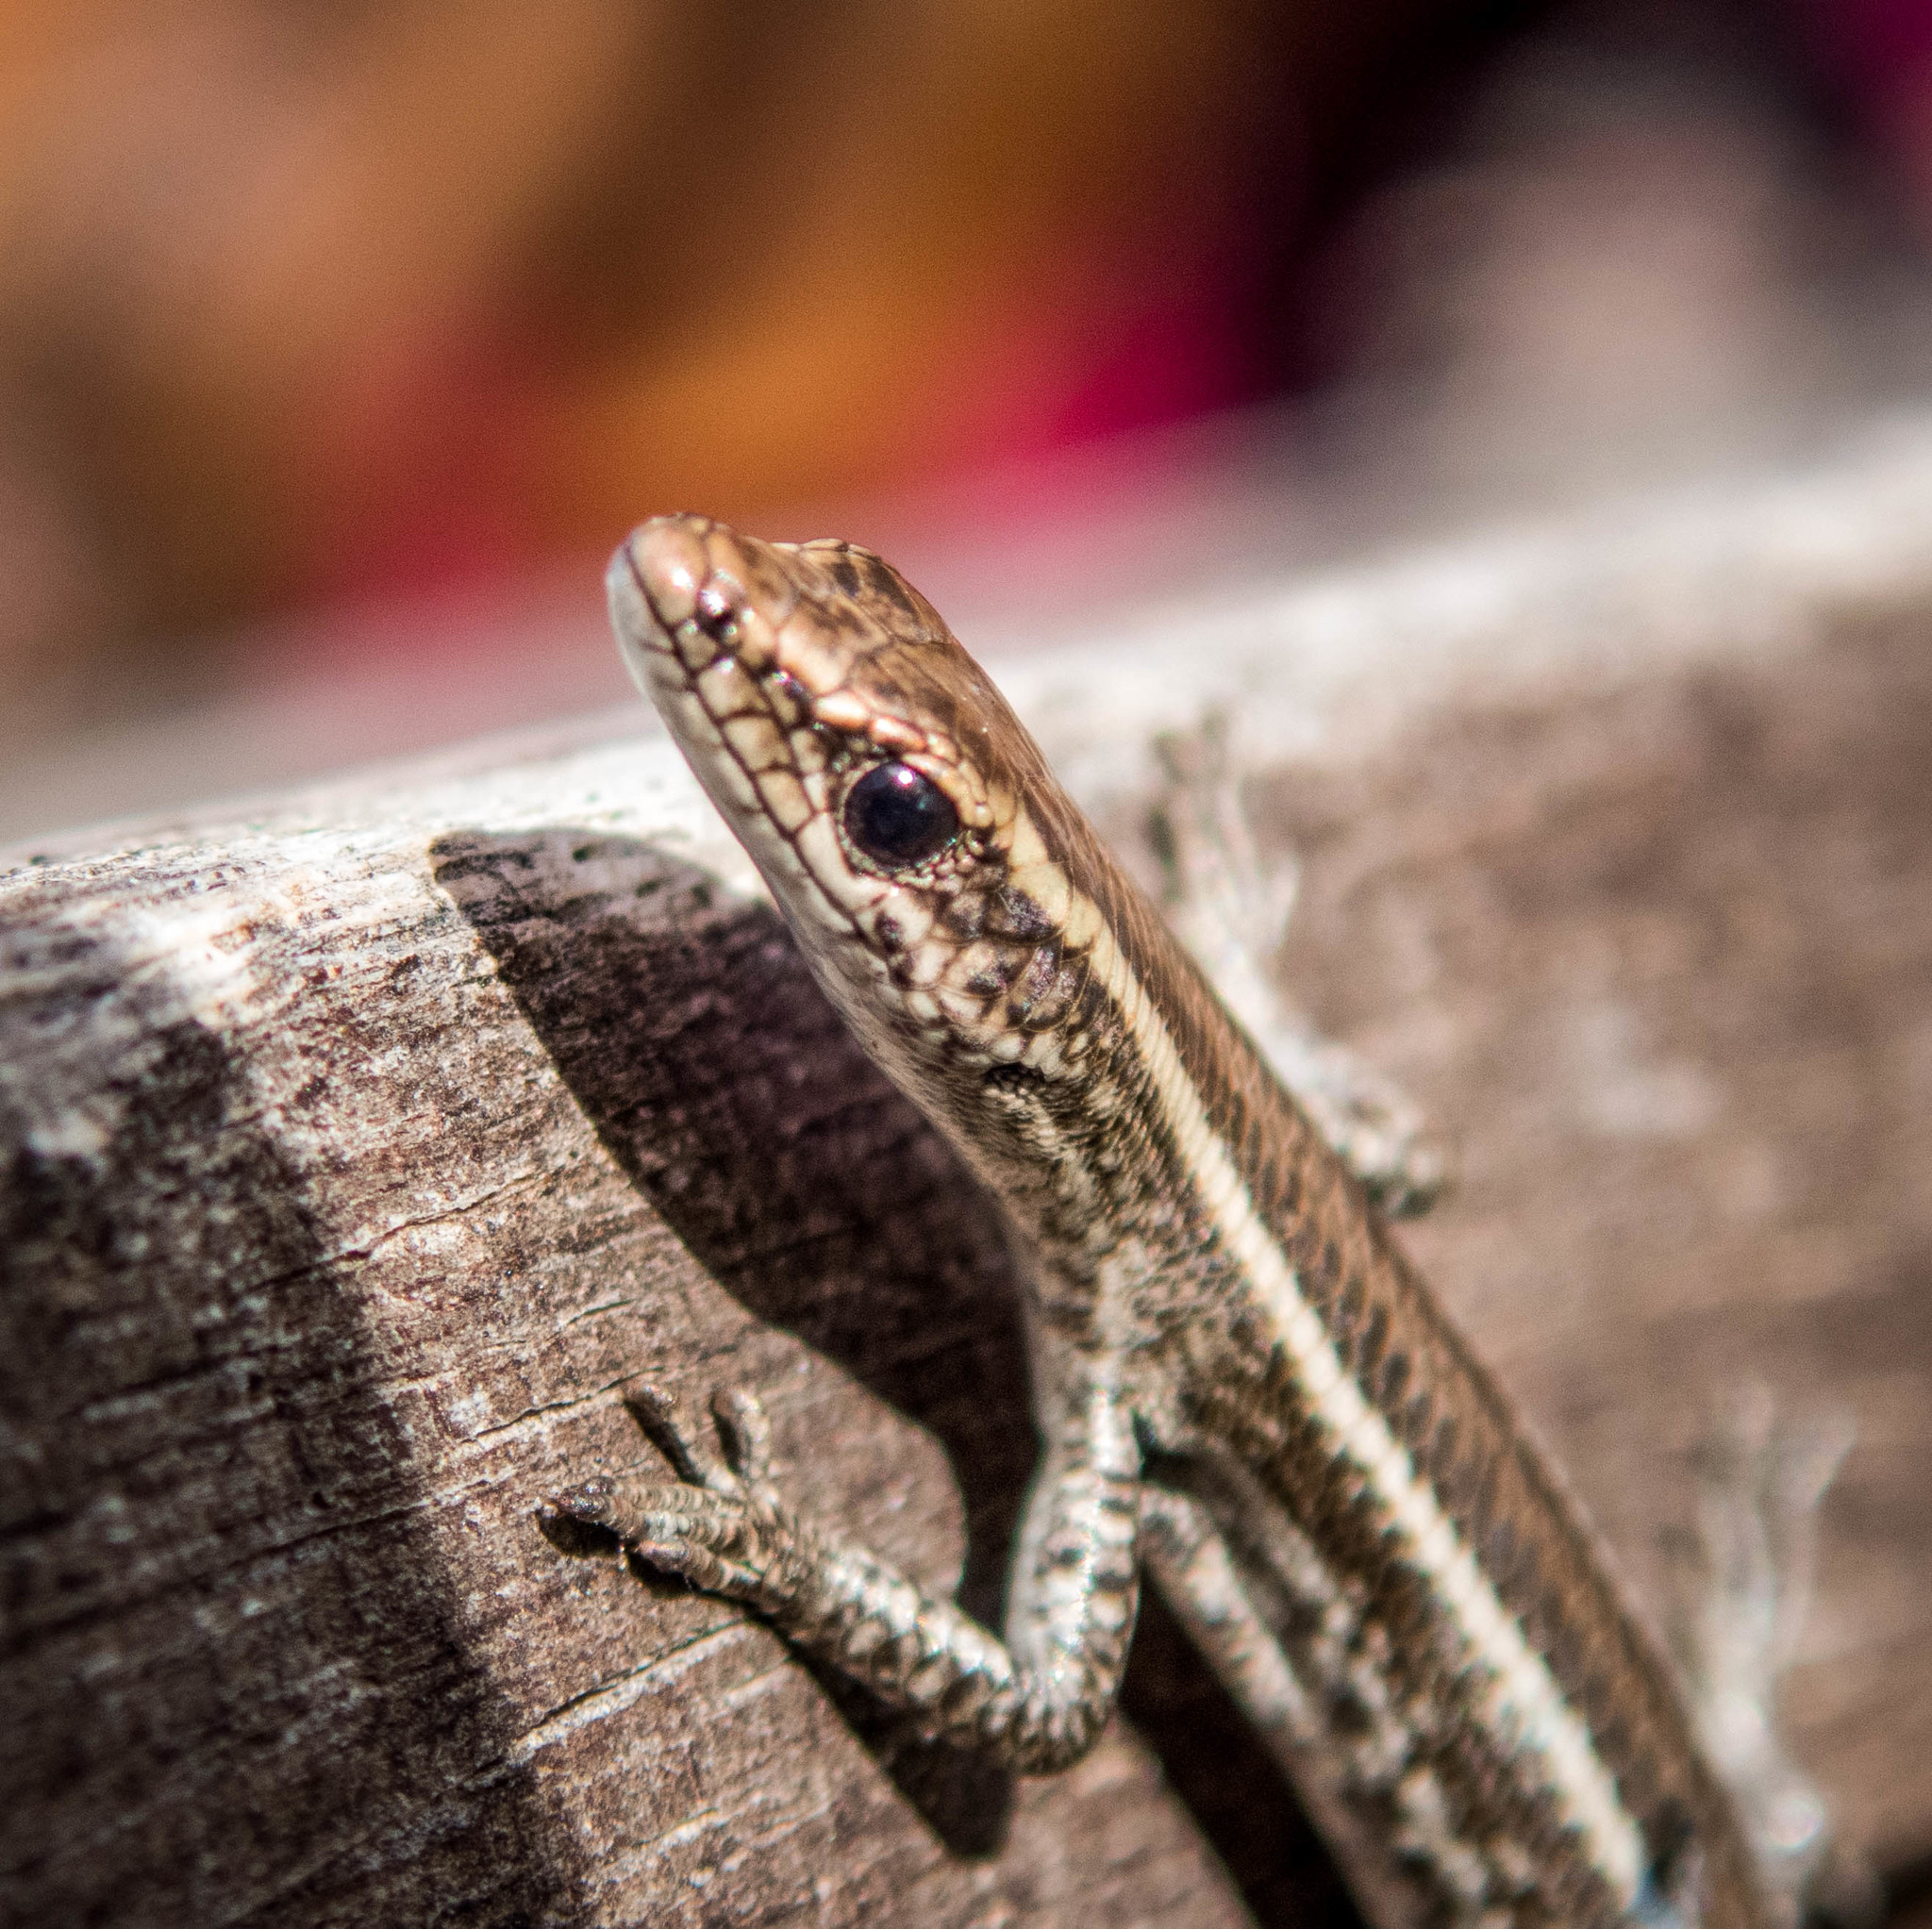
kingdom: Animalia
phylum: Chordata
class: Squamata
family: Scincidae
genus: Cryptoblepharus
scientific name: Cryptoblepharus pulcher
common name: Elegant snake-eyed skink
